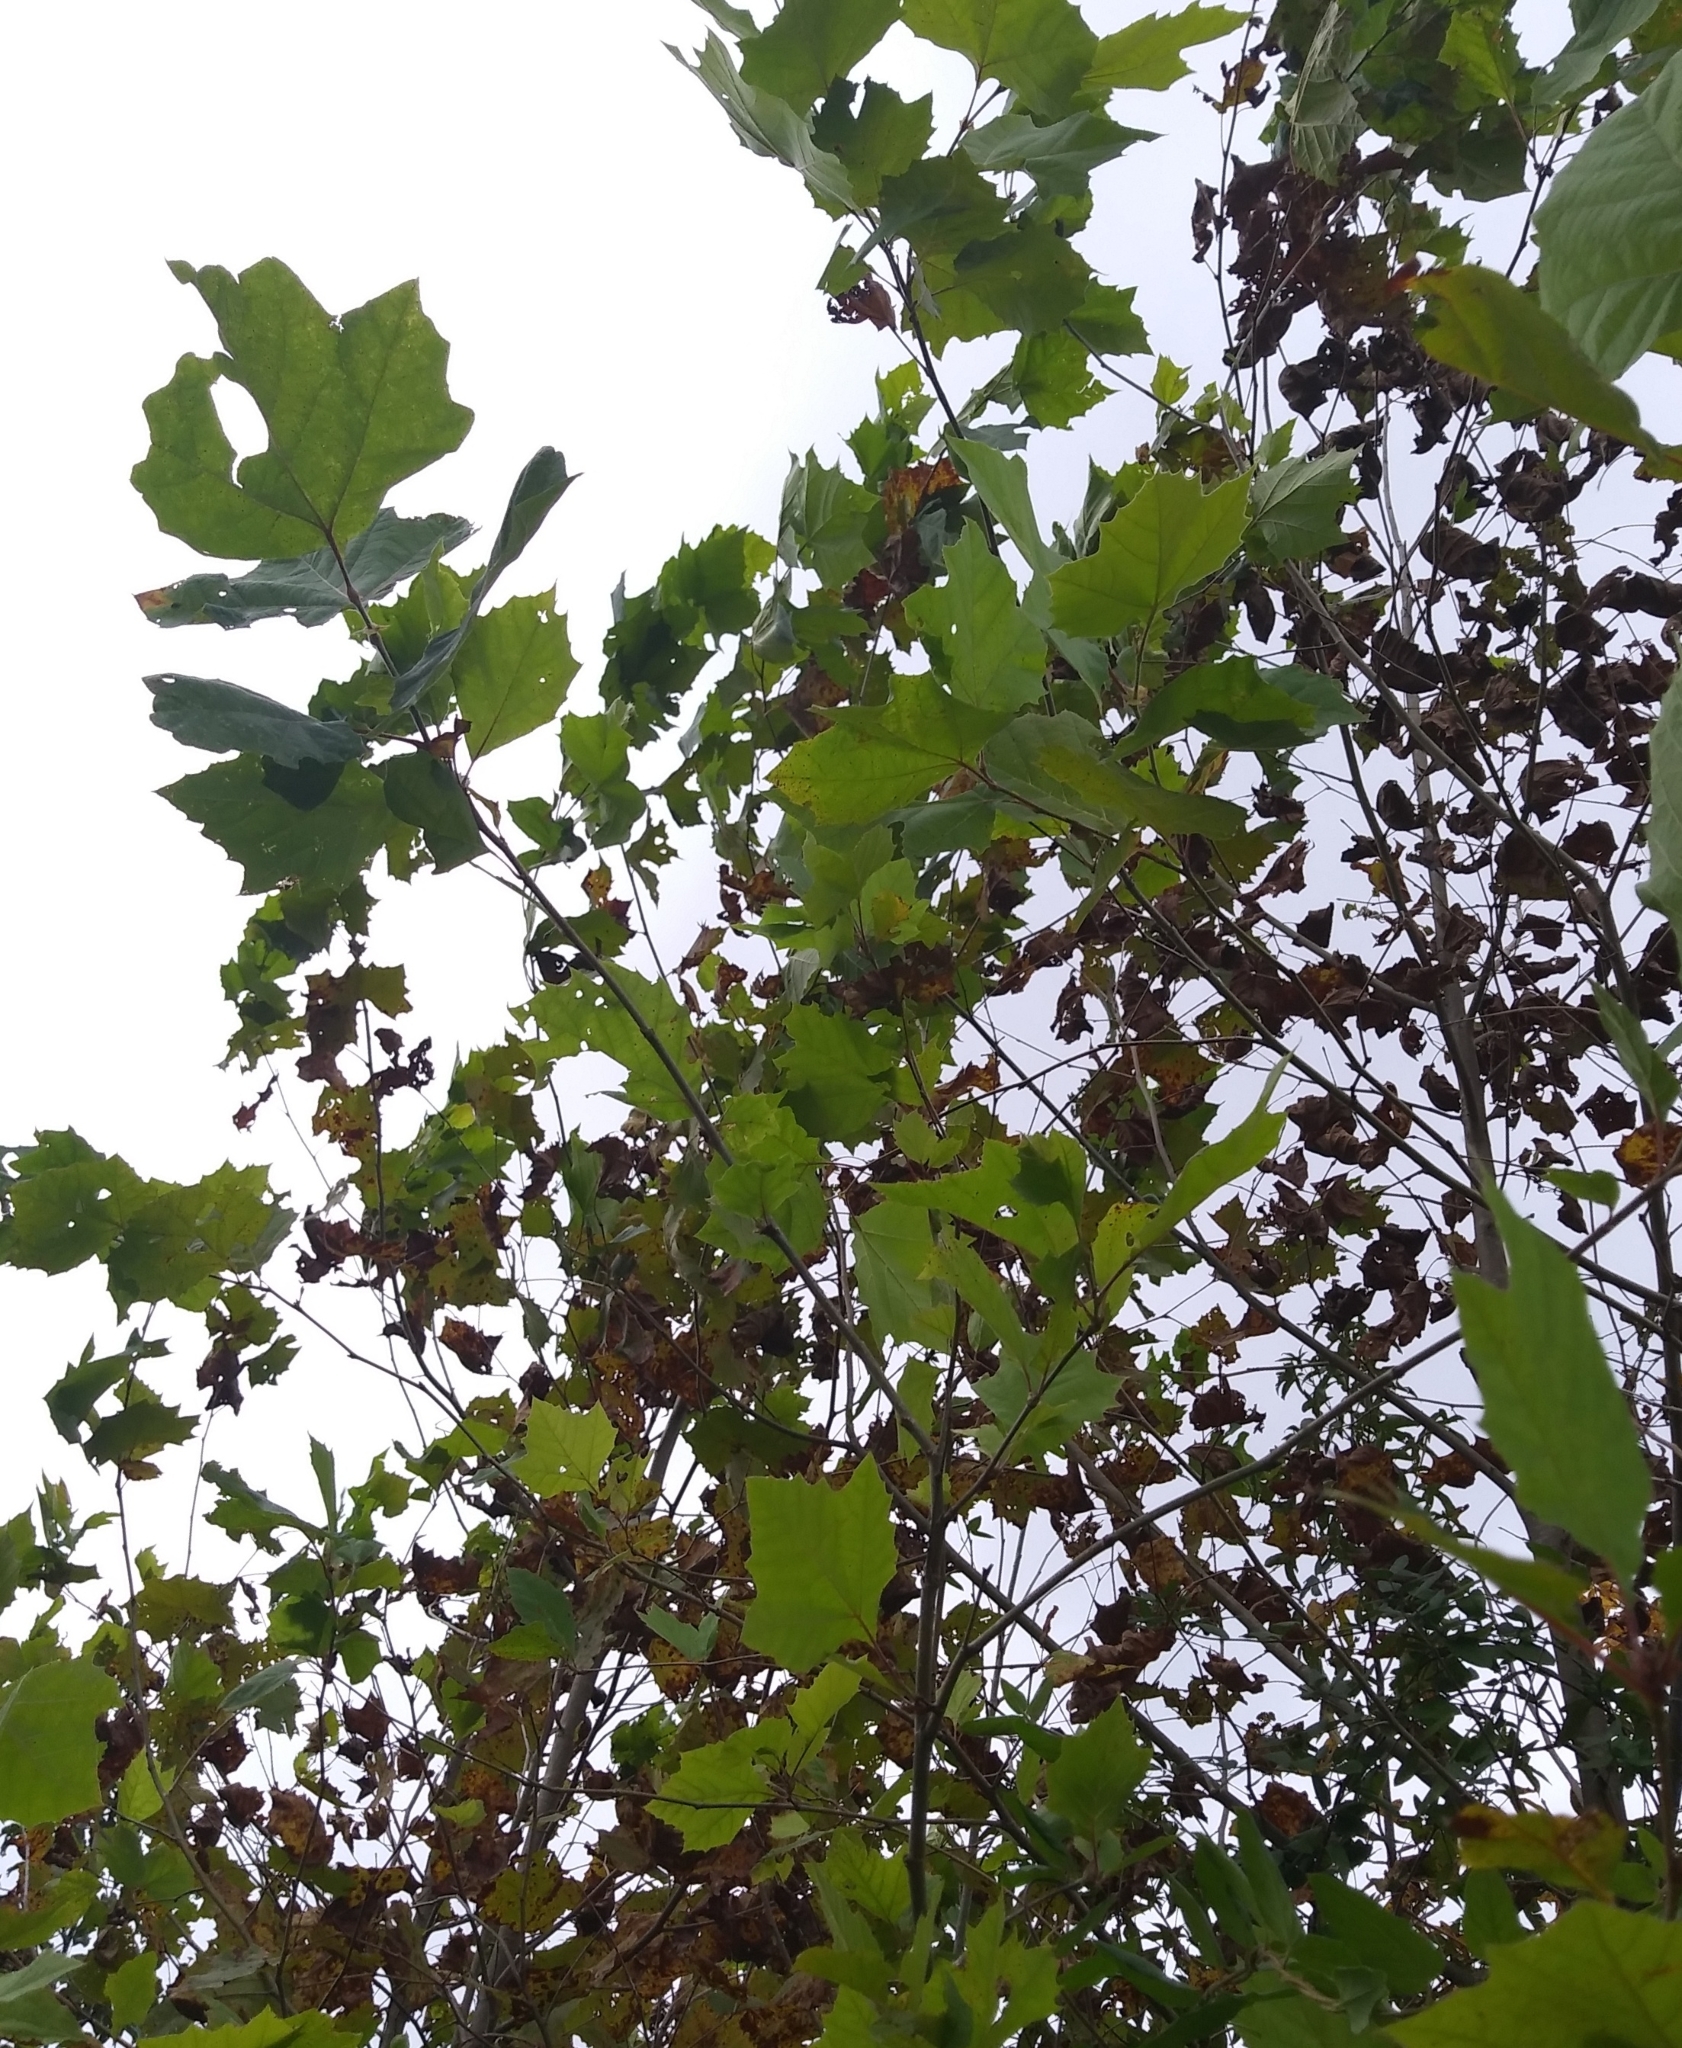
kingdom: Plantae
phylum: Tracheophyta
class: Magnoliopsida
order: Proteales
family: Platanaceae
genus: Platanus
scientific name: Platanus occidentalis
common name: American sycamore
